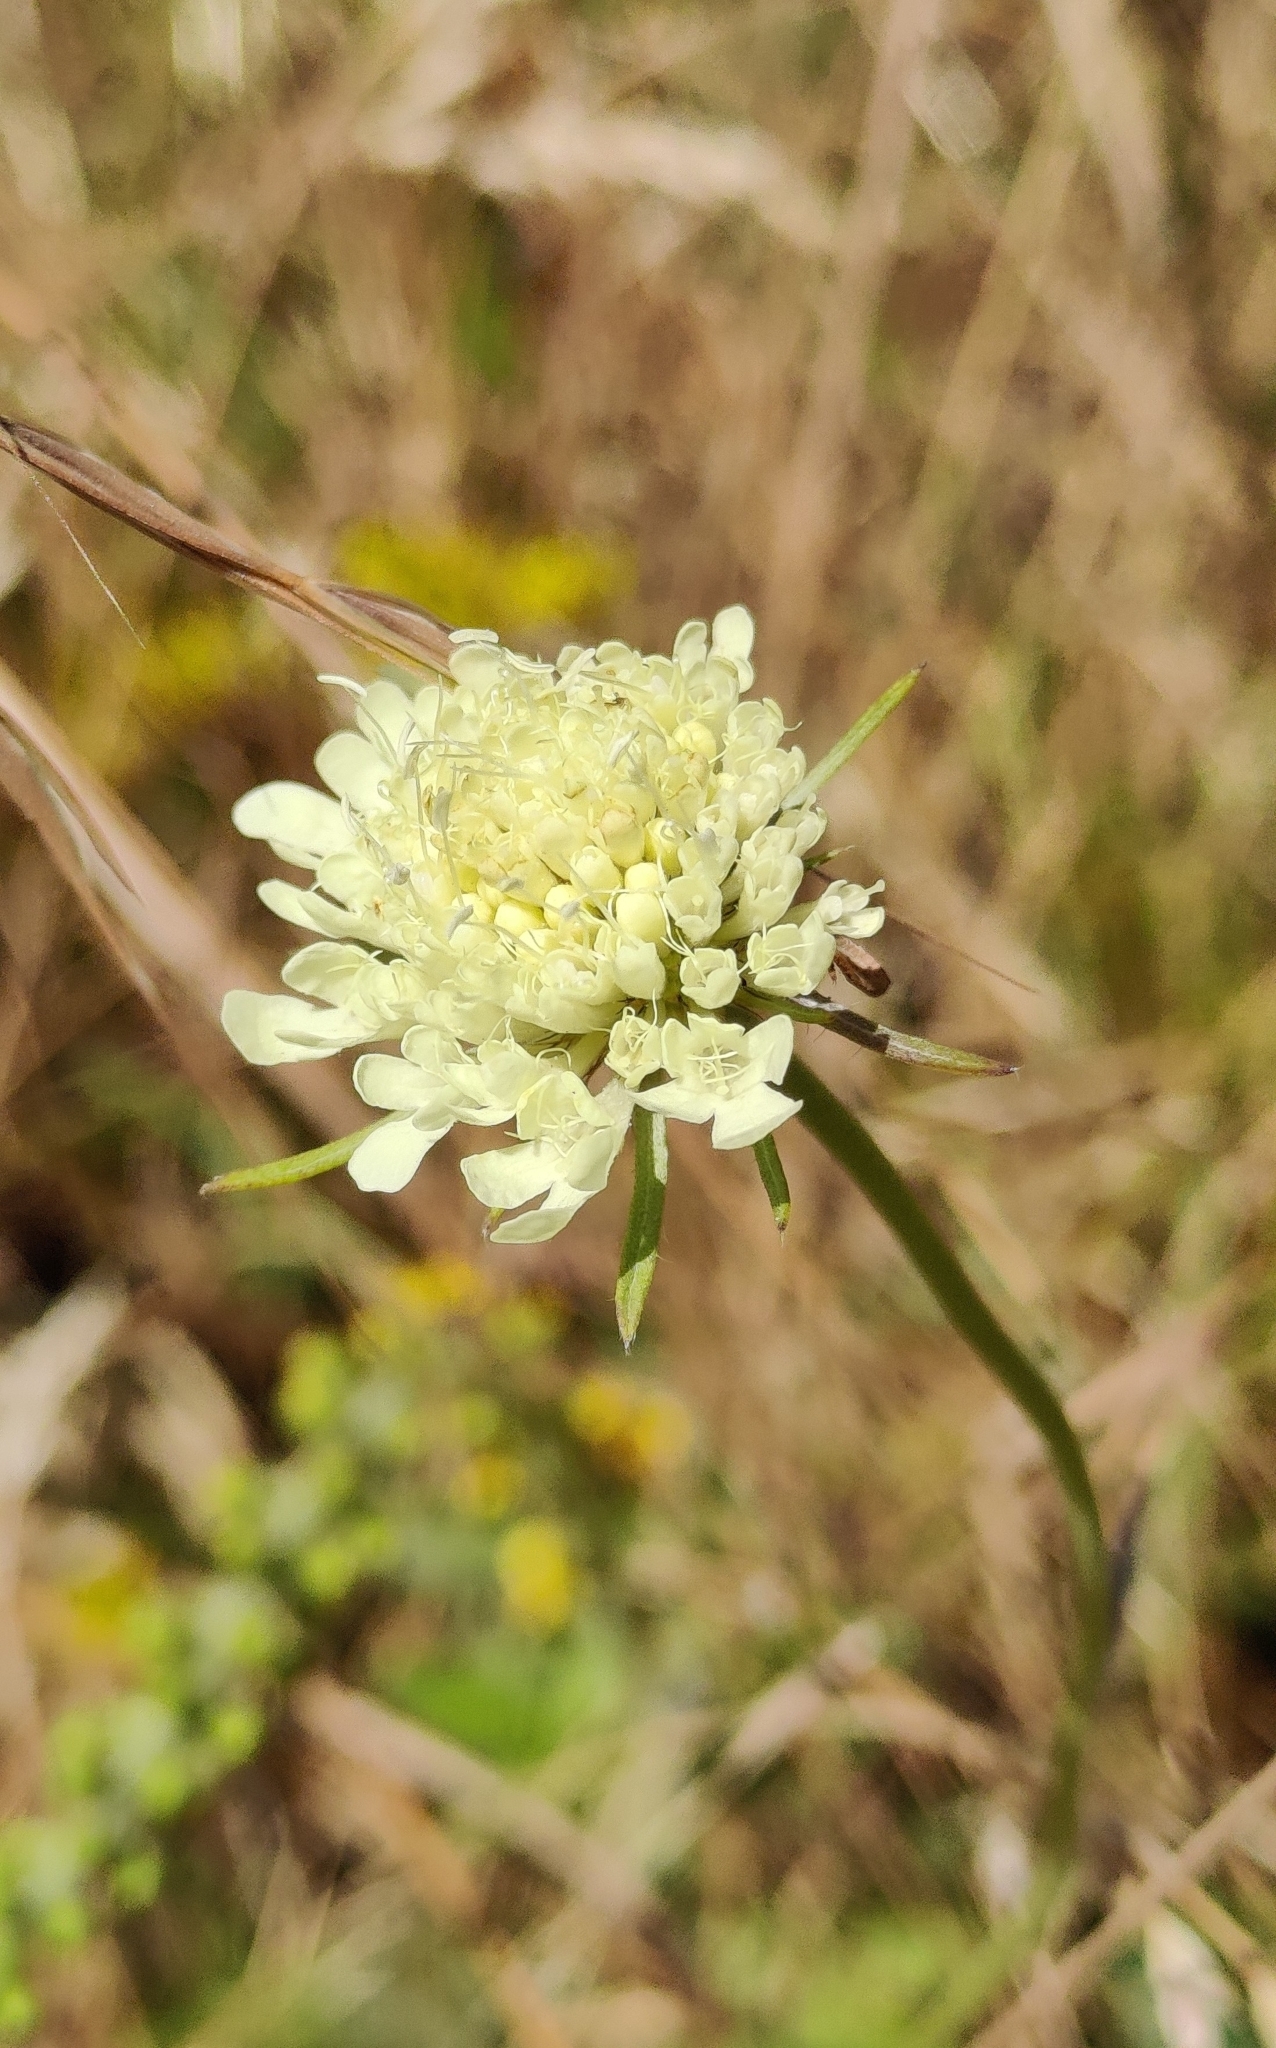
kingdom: Plantae
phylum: Tracheophyta
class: Magnoliopsida
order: Dipsacales
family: Caprifoliaceae
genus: Scabiosa
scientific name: Scabiosa ochroleuca
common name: Cream pincushions
